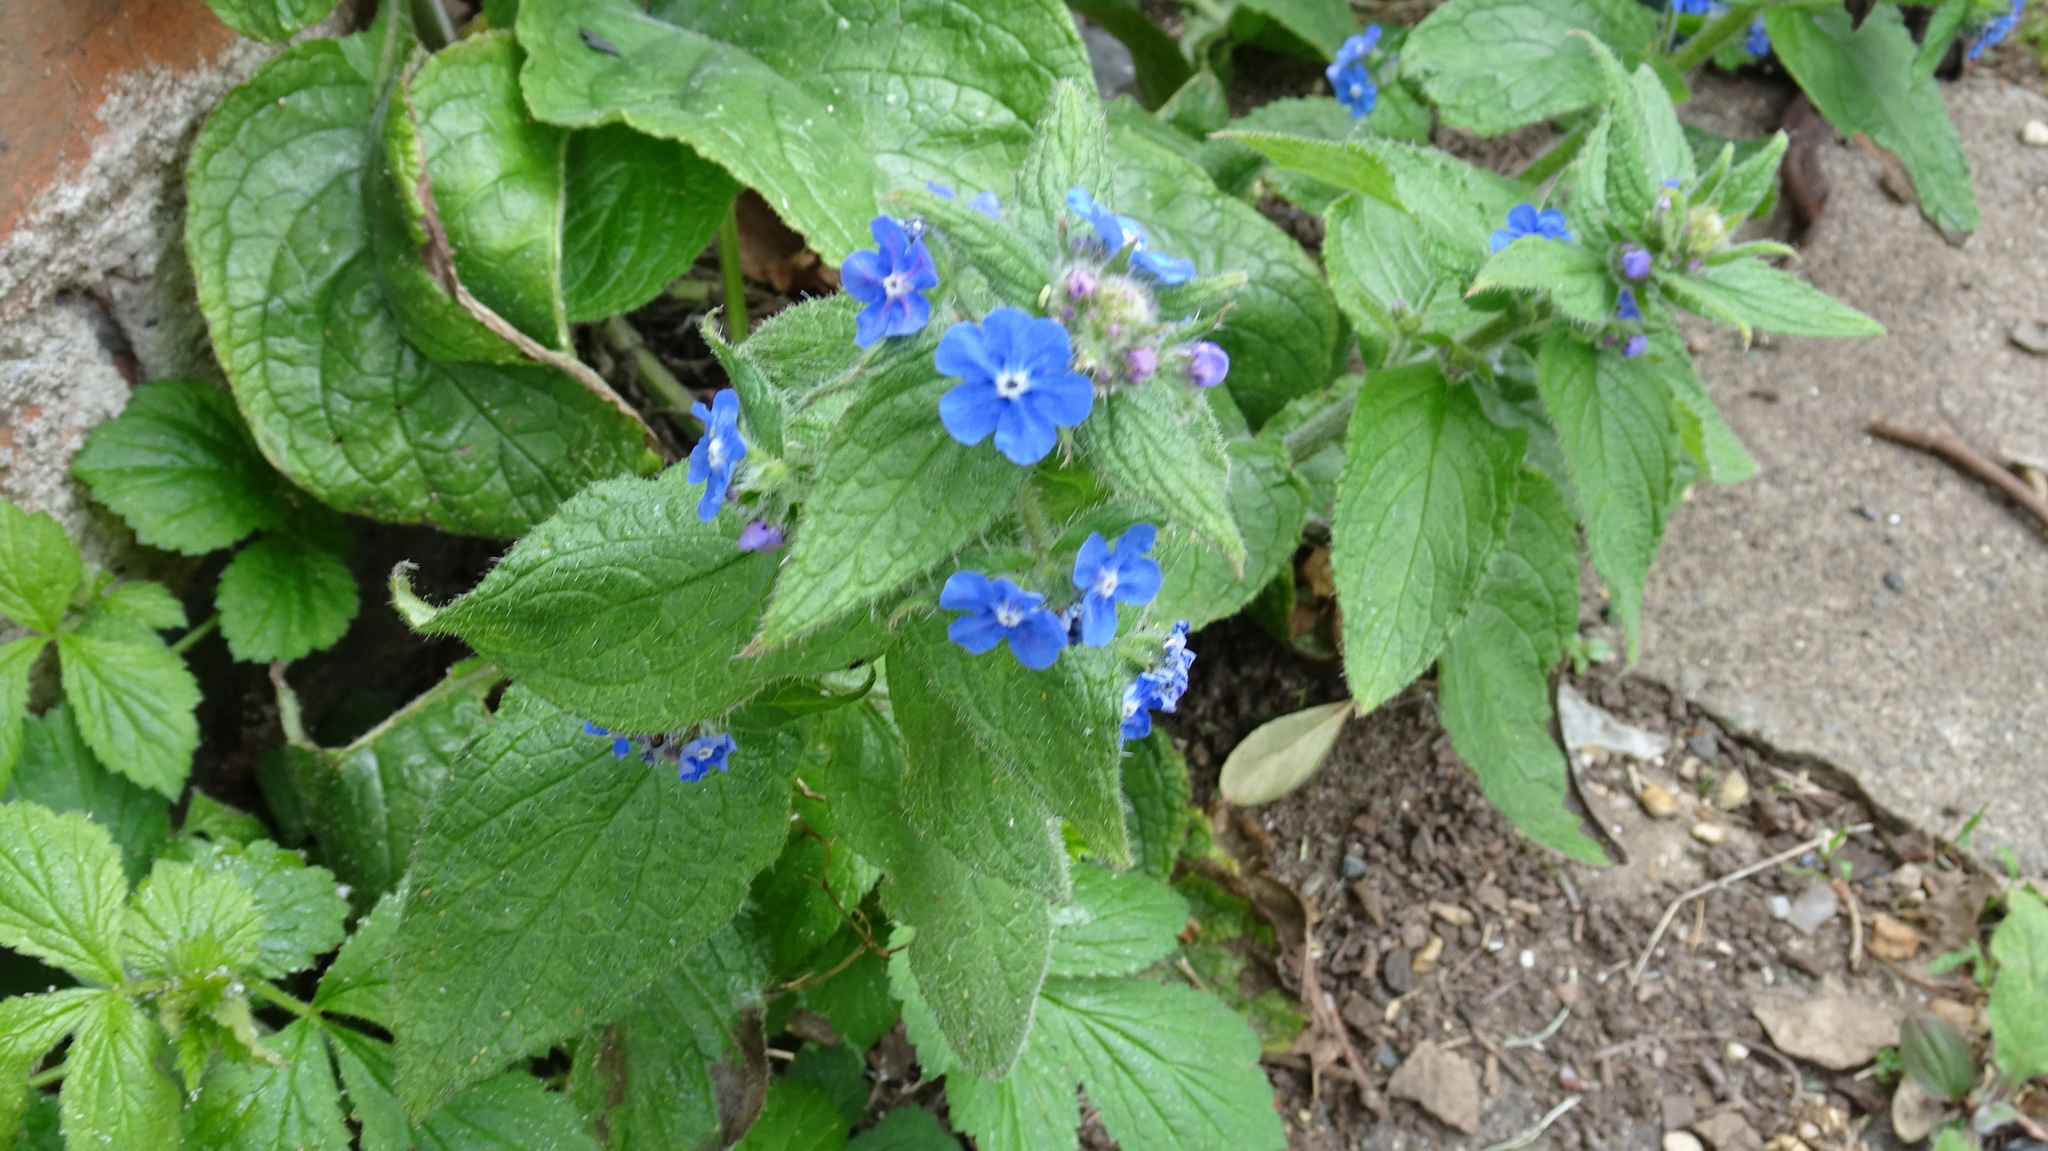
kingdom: Plantae
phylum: Tracheophyta
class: Magnoliopsida
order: Boraginales
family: Boraginaceae
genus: Pentaglottis
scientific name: Pentaglottis sempervirens
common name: Green alkanet
